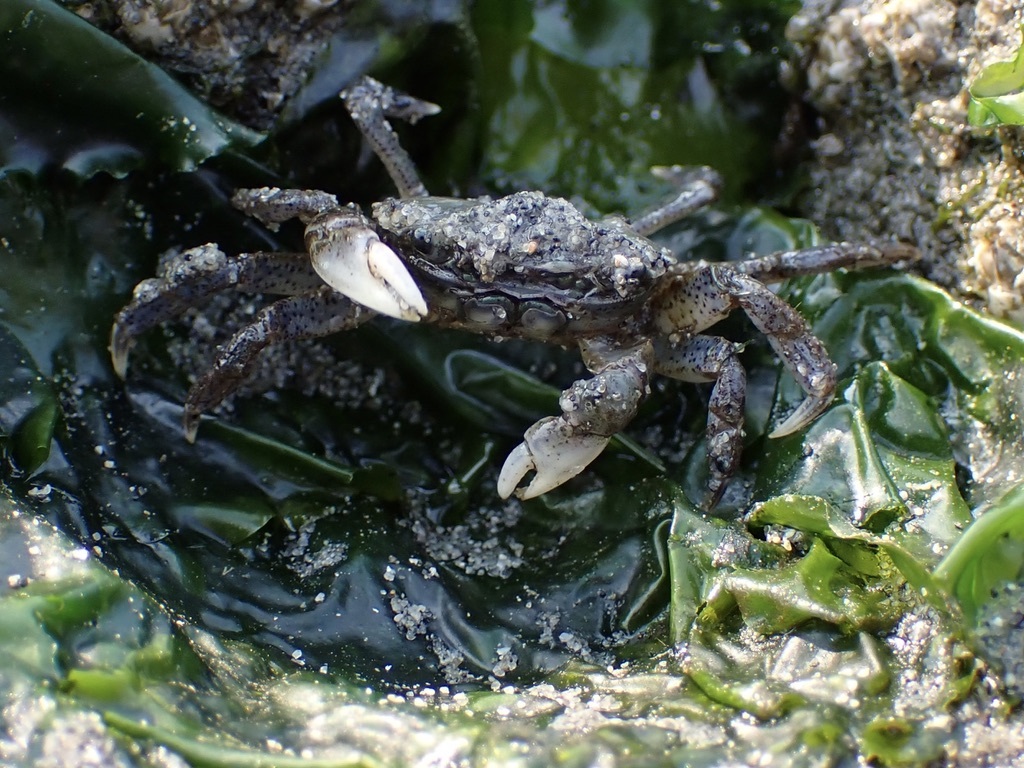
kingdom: Animalia
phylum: Arthropoda
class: Malacostraca
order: Decapoda
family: Varunidae
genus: Hemigrapsus
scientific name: Hemigrapsus oregonensis
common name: Yellow shore crab
